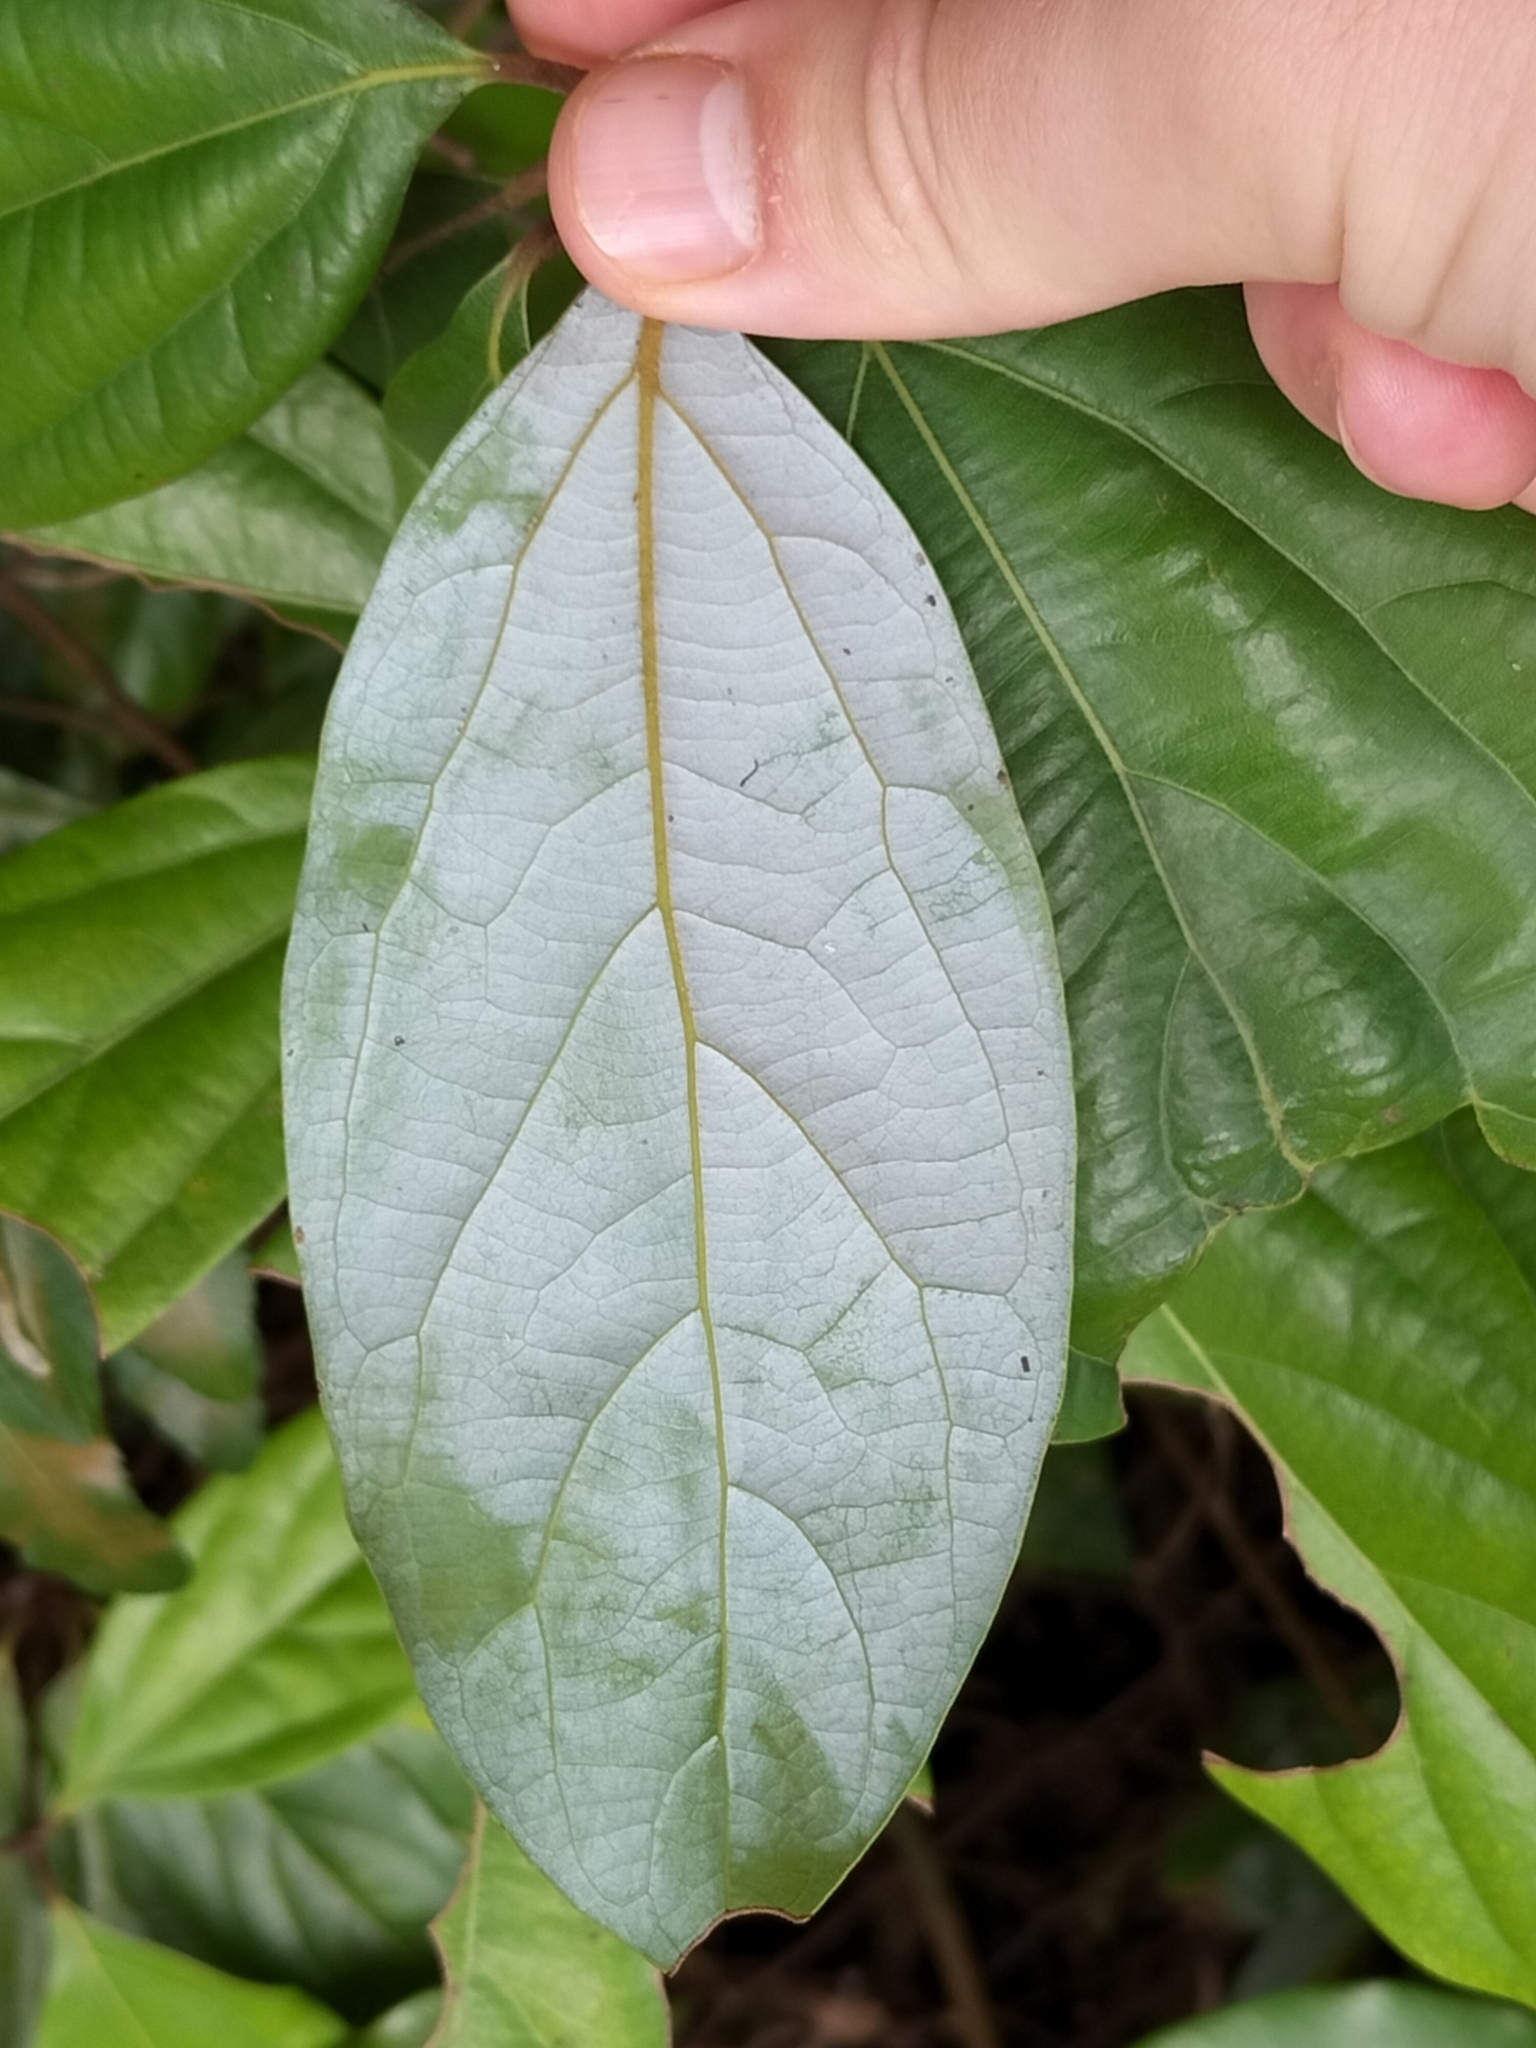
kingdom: Plantae
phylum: Tracheophyta
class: Magnoliopsida
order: Laurales
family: Lauraceae
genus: Neolitsea
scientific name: Neolitsea dealbata
